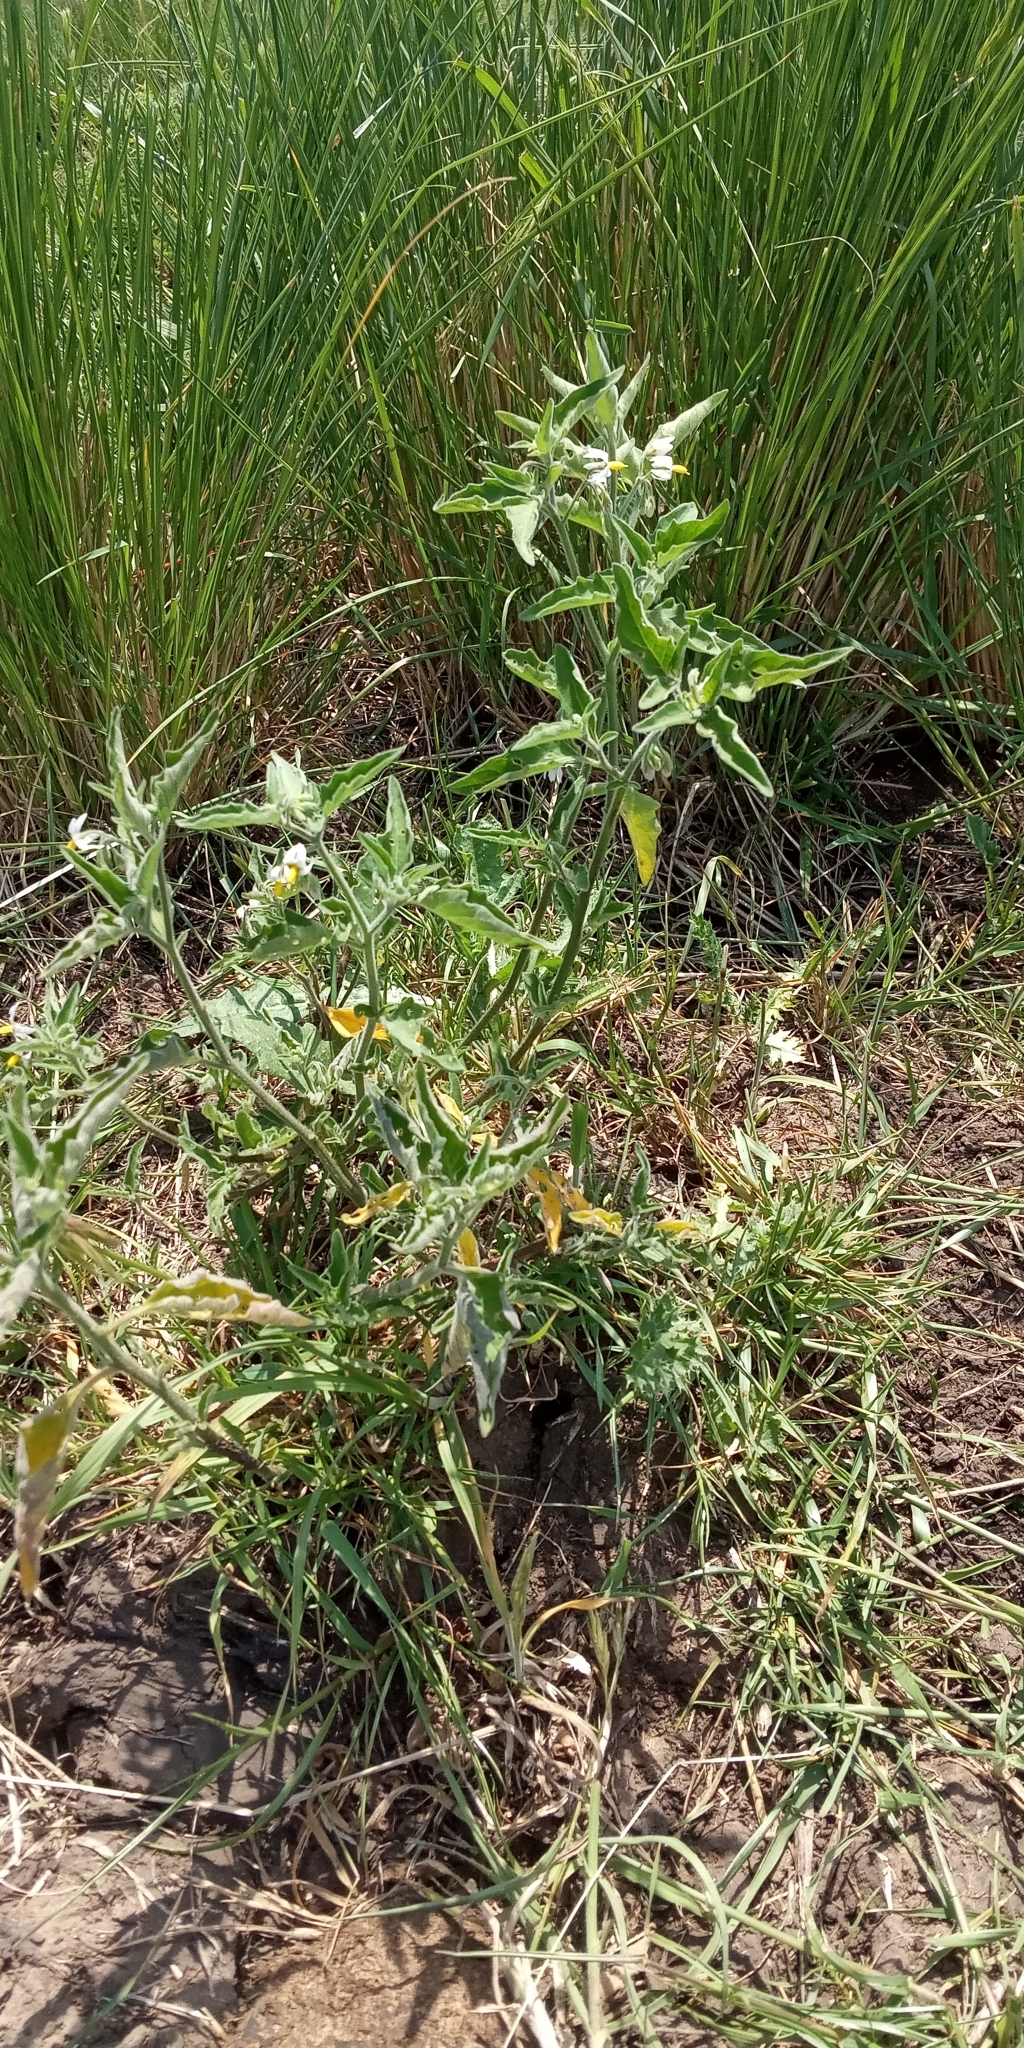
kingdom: Plantae
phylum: Tracheophyta
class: Magnoliopsida
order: Solanales
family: Solanaceae
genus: Solanum
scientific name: Solanum chenopodioides
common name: Tall nightshade
